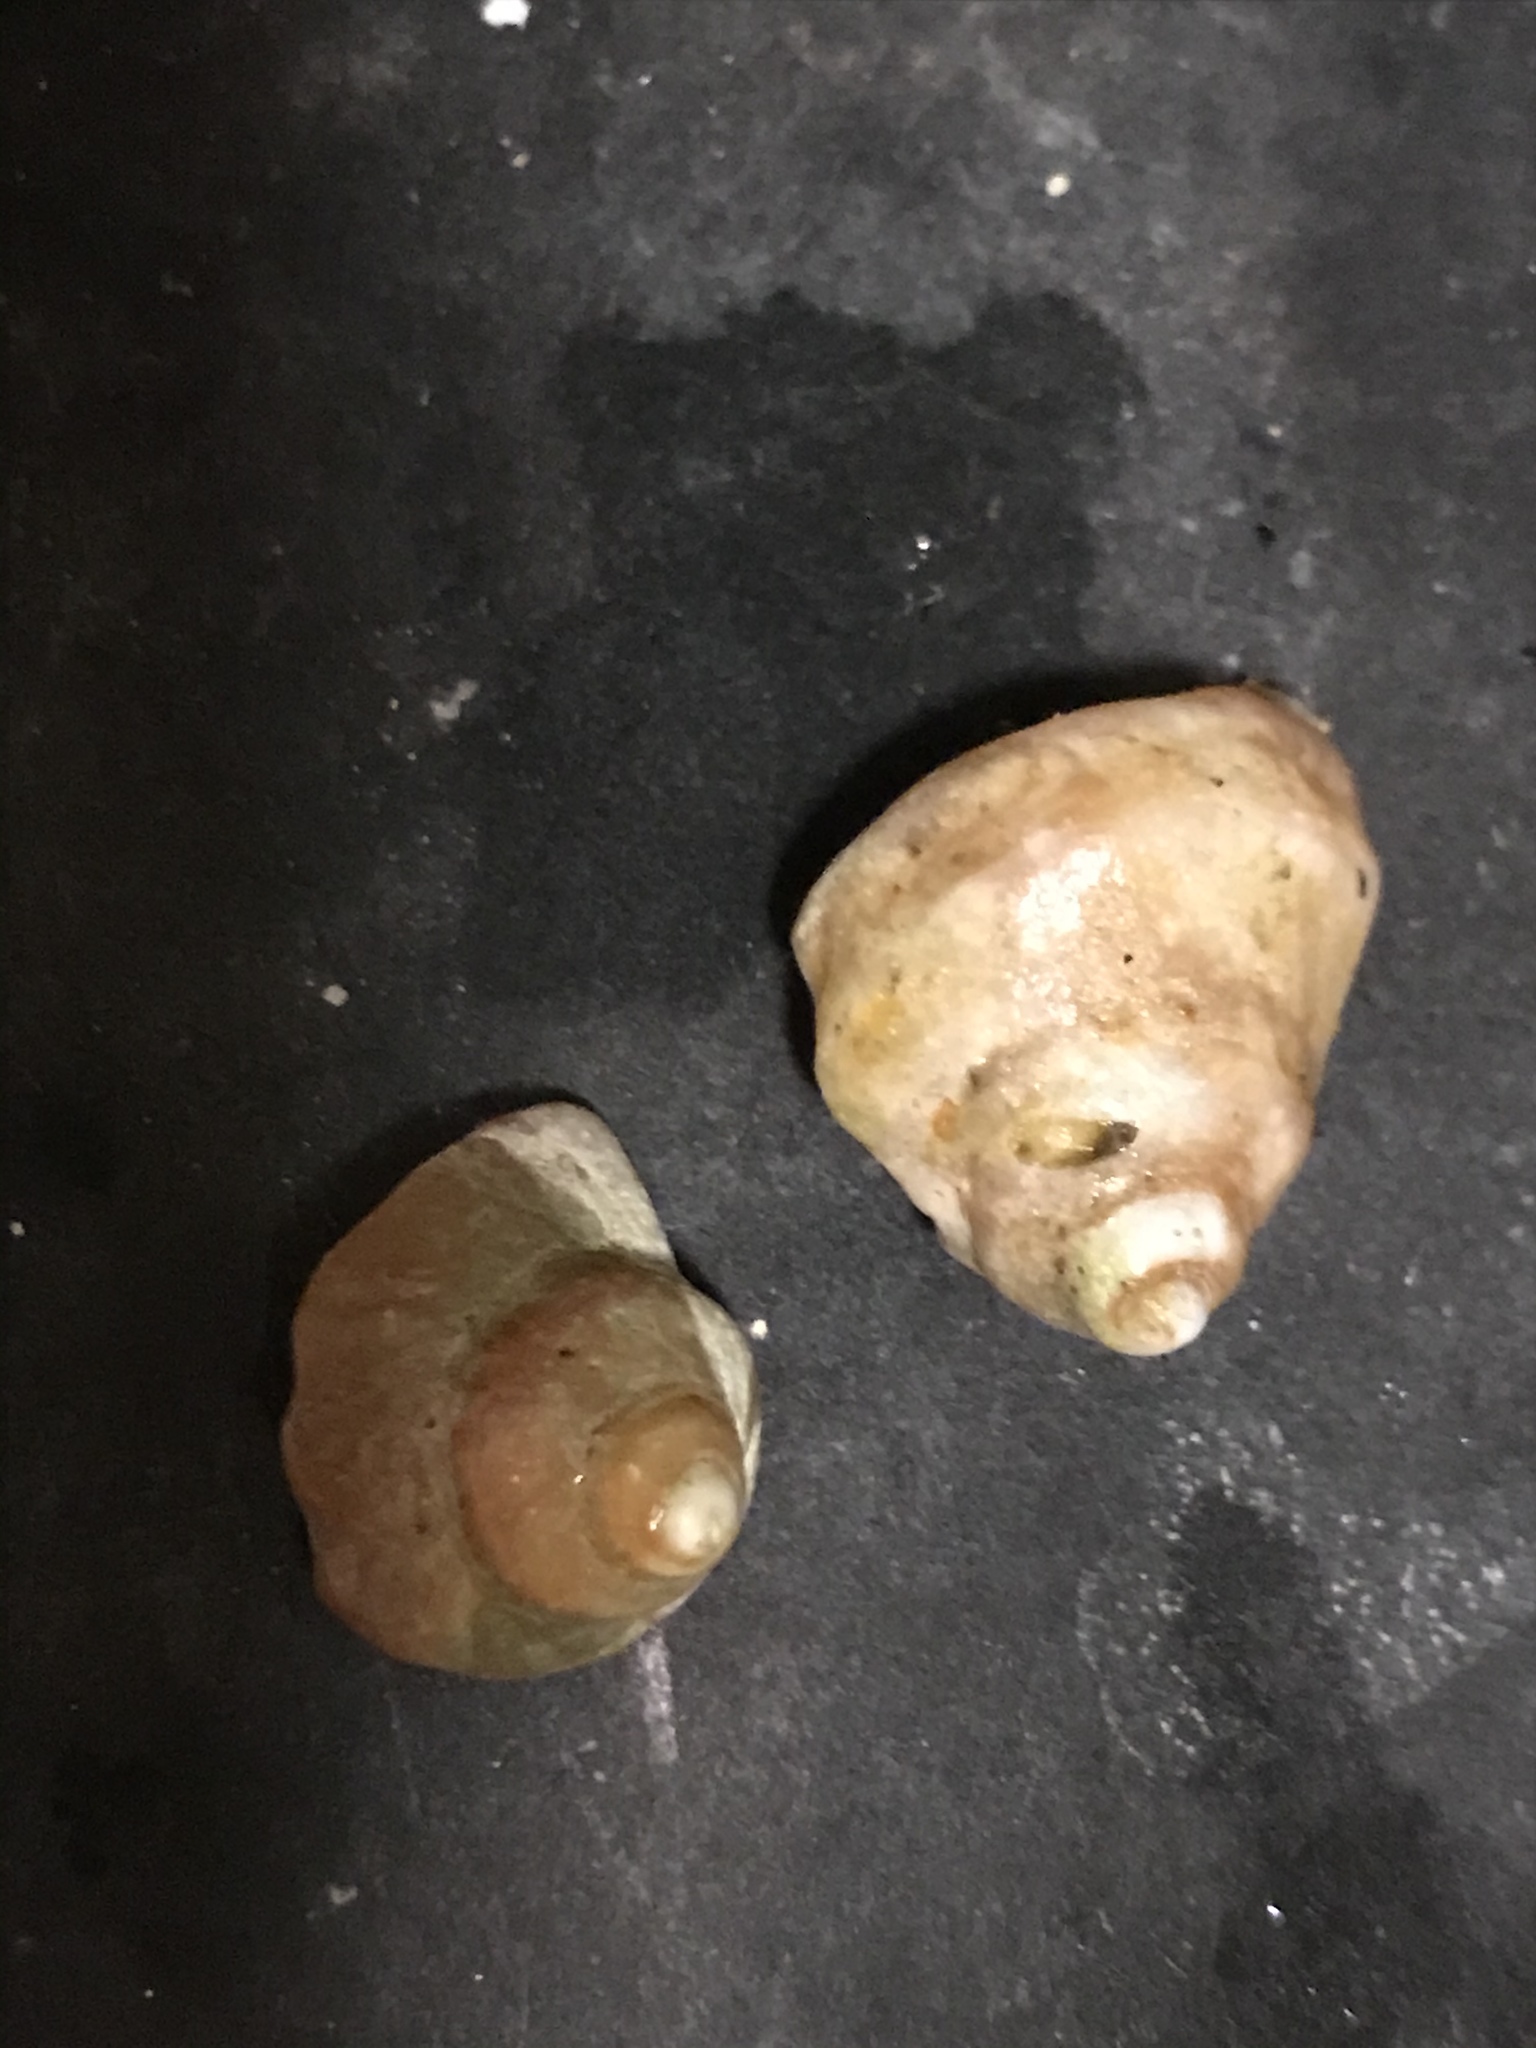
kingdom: Animalia
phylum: Mollusca
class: Gastropoda
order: Neogastropoda
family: Muricidae
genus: Nucella
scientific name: Nucella lamellosa
